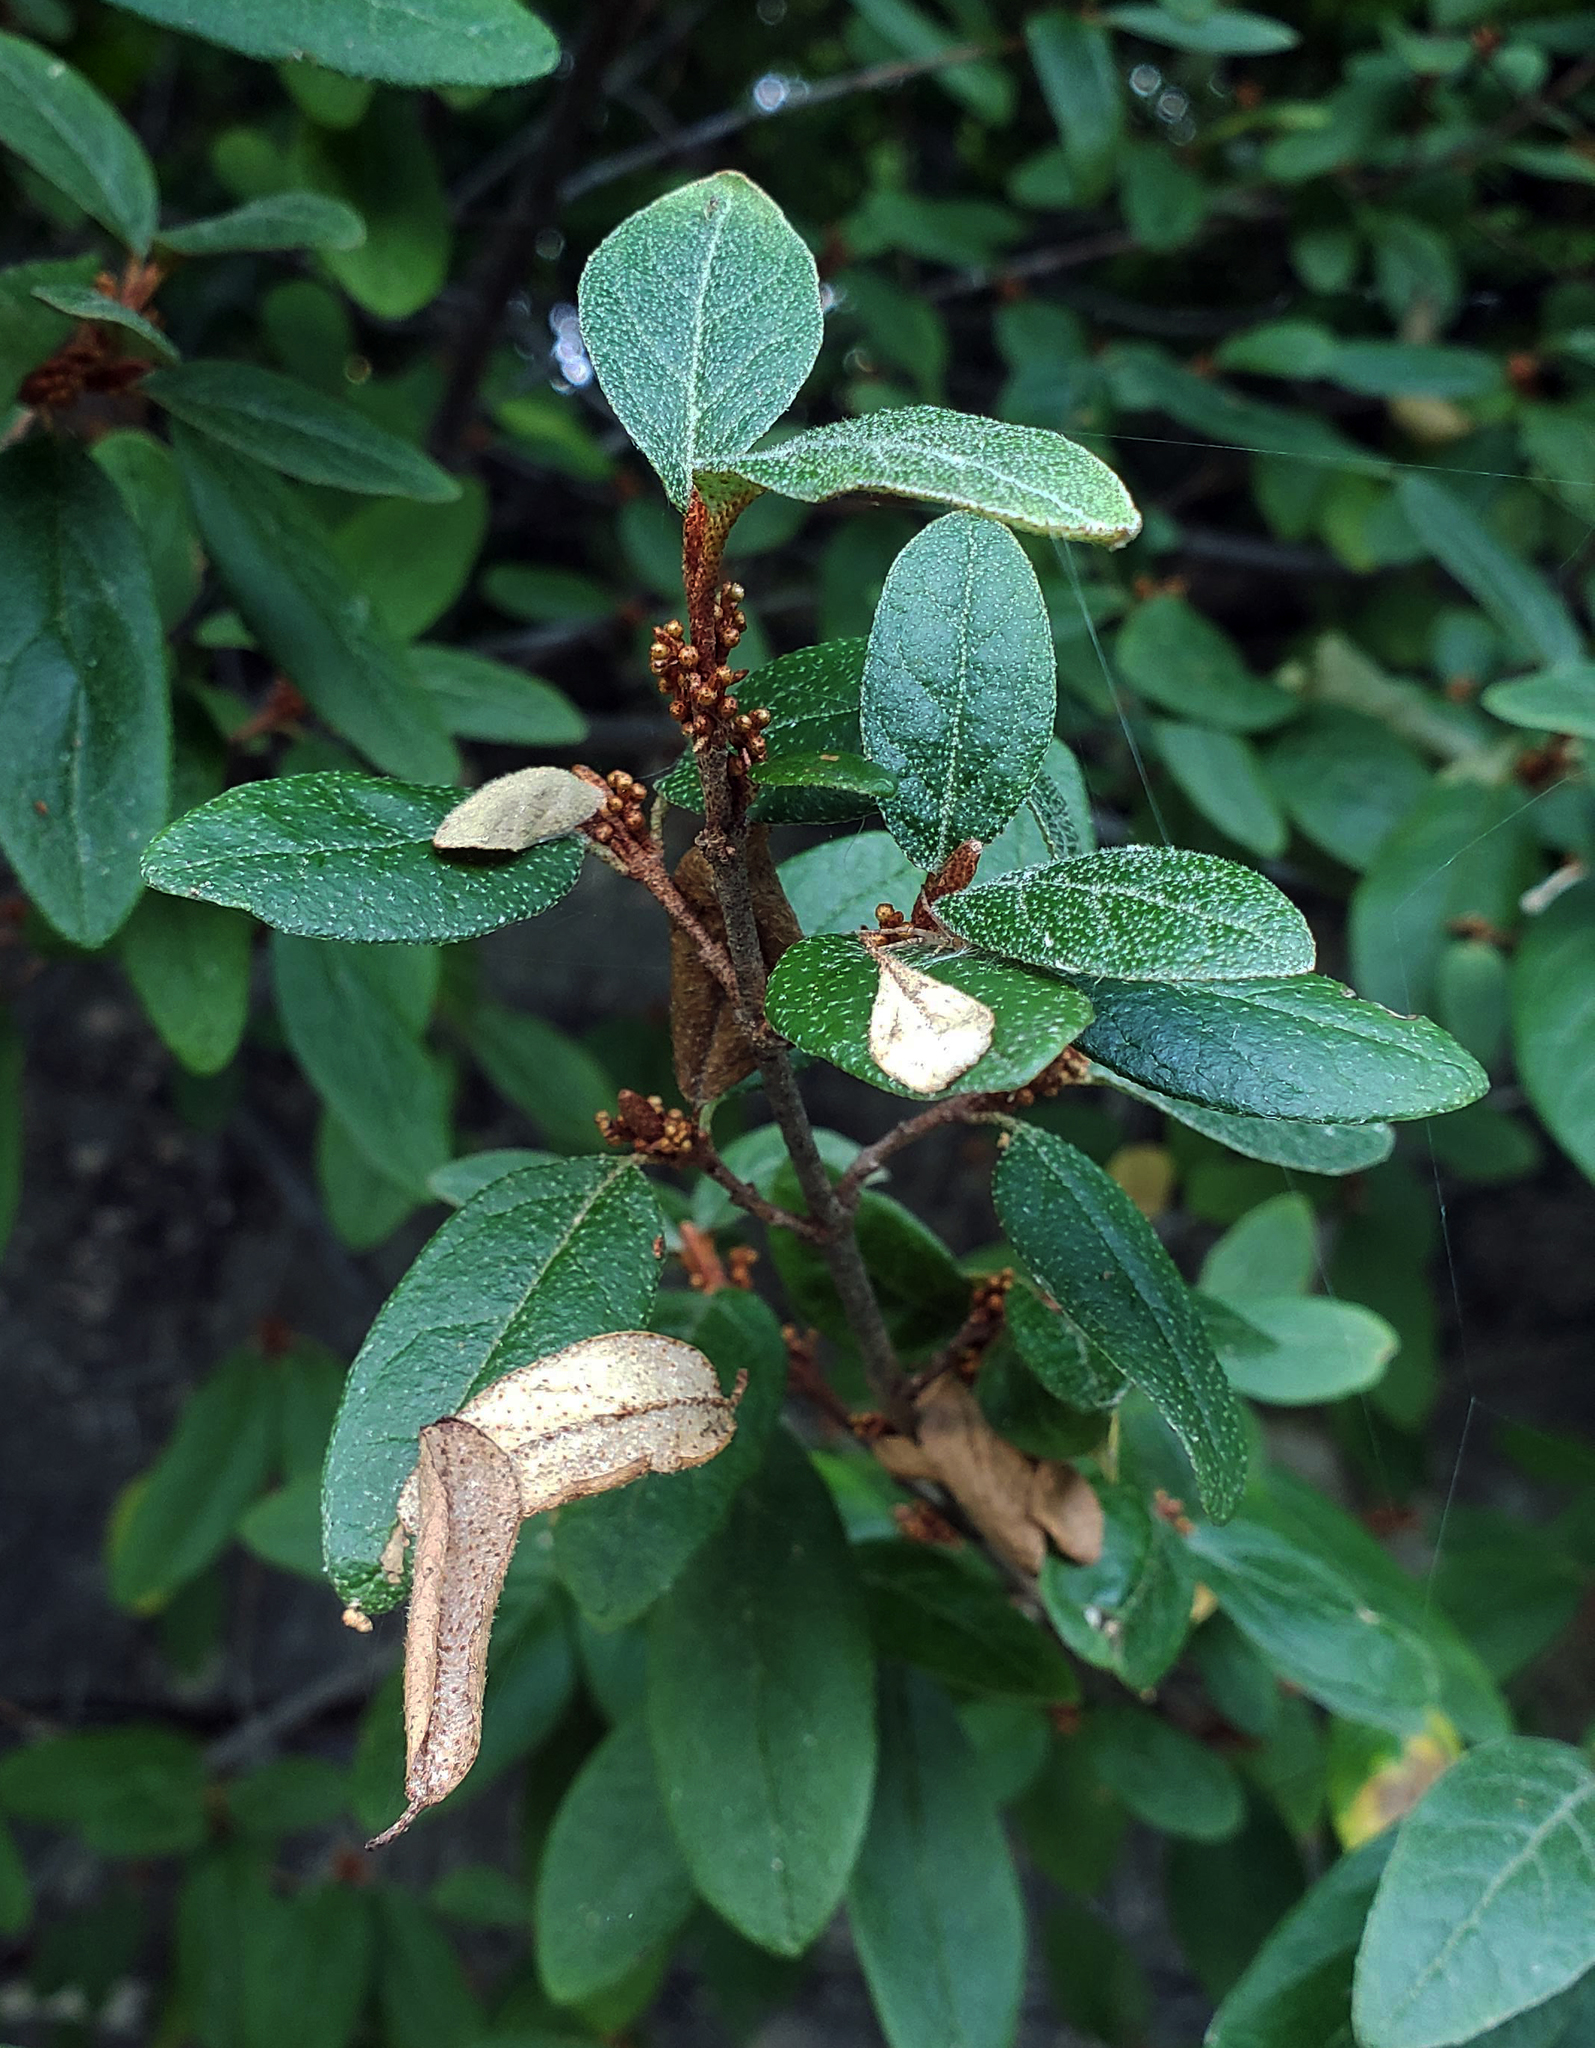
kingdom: Plantae
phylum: Tracheophyta
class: Magnoliopsida
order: Rosales
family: Elaeagnaceae
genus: Shepherdia
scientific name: Shepherdia canadensis
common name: Soapberry
